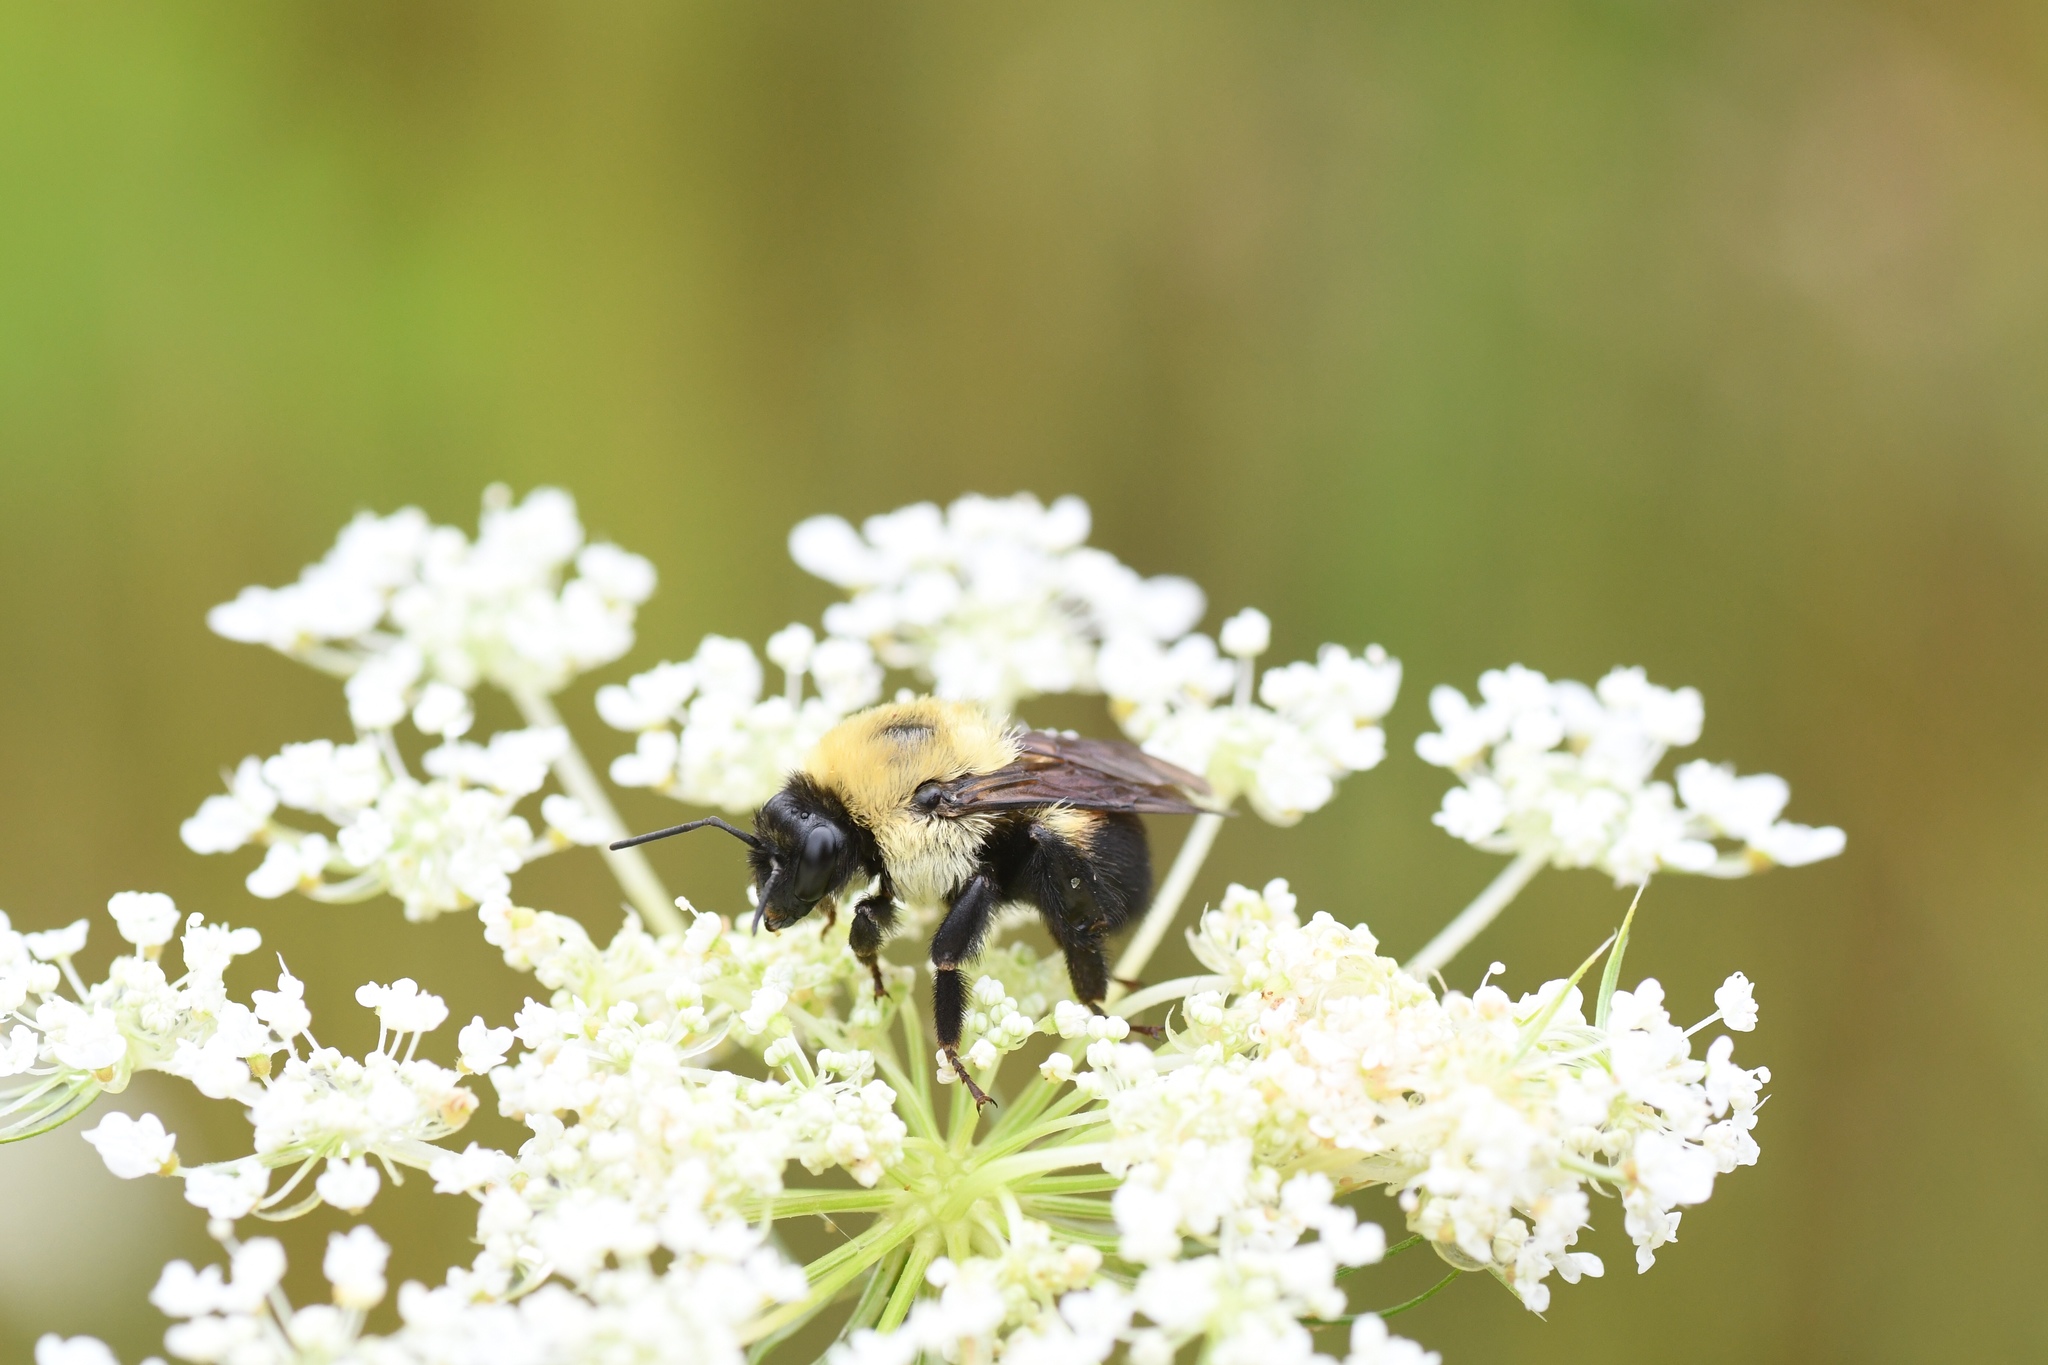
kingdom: Animalia
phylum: Arthropoda
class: Insecta
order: Hymenoptera
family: Apidae
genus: Bombus
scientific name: Bombus griseocollis
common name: Brown-belted bumble bee
